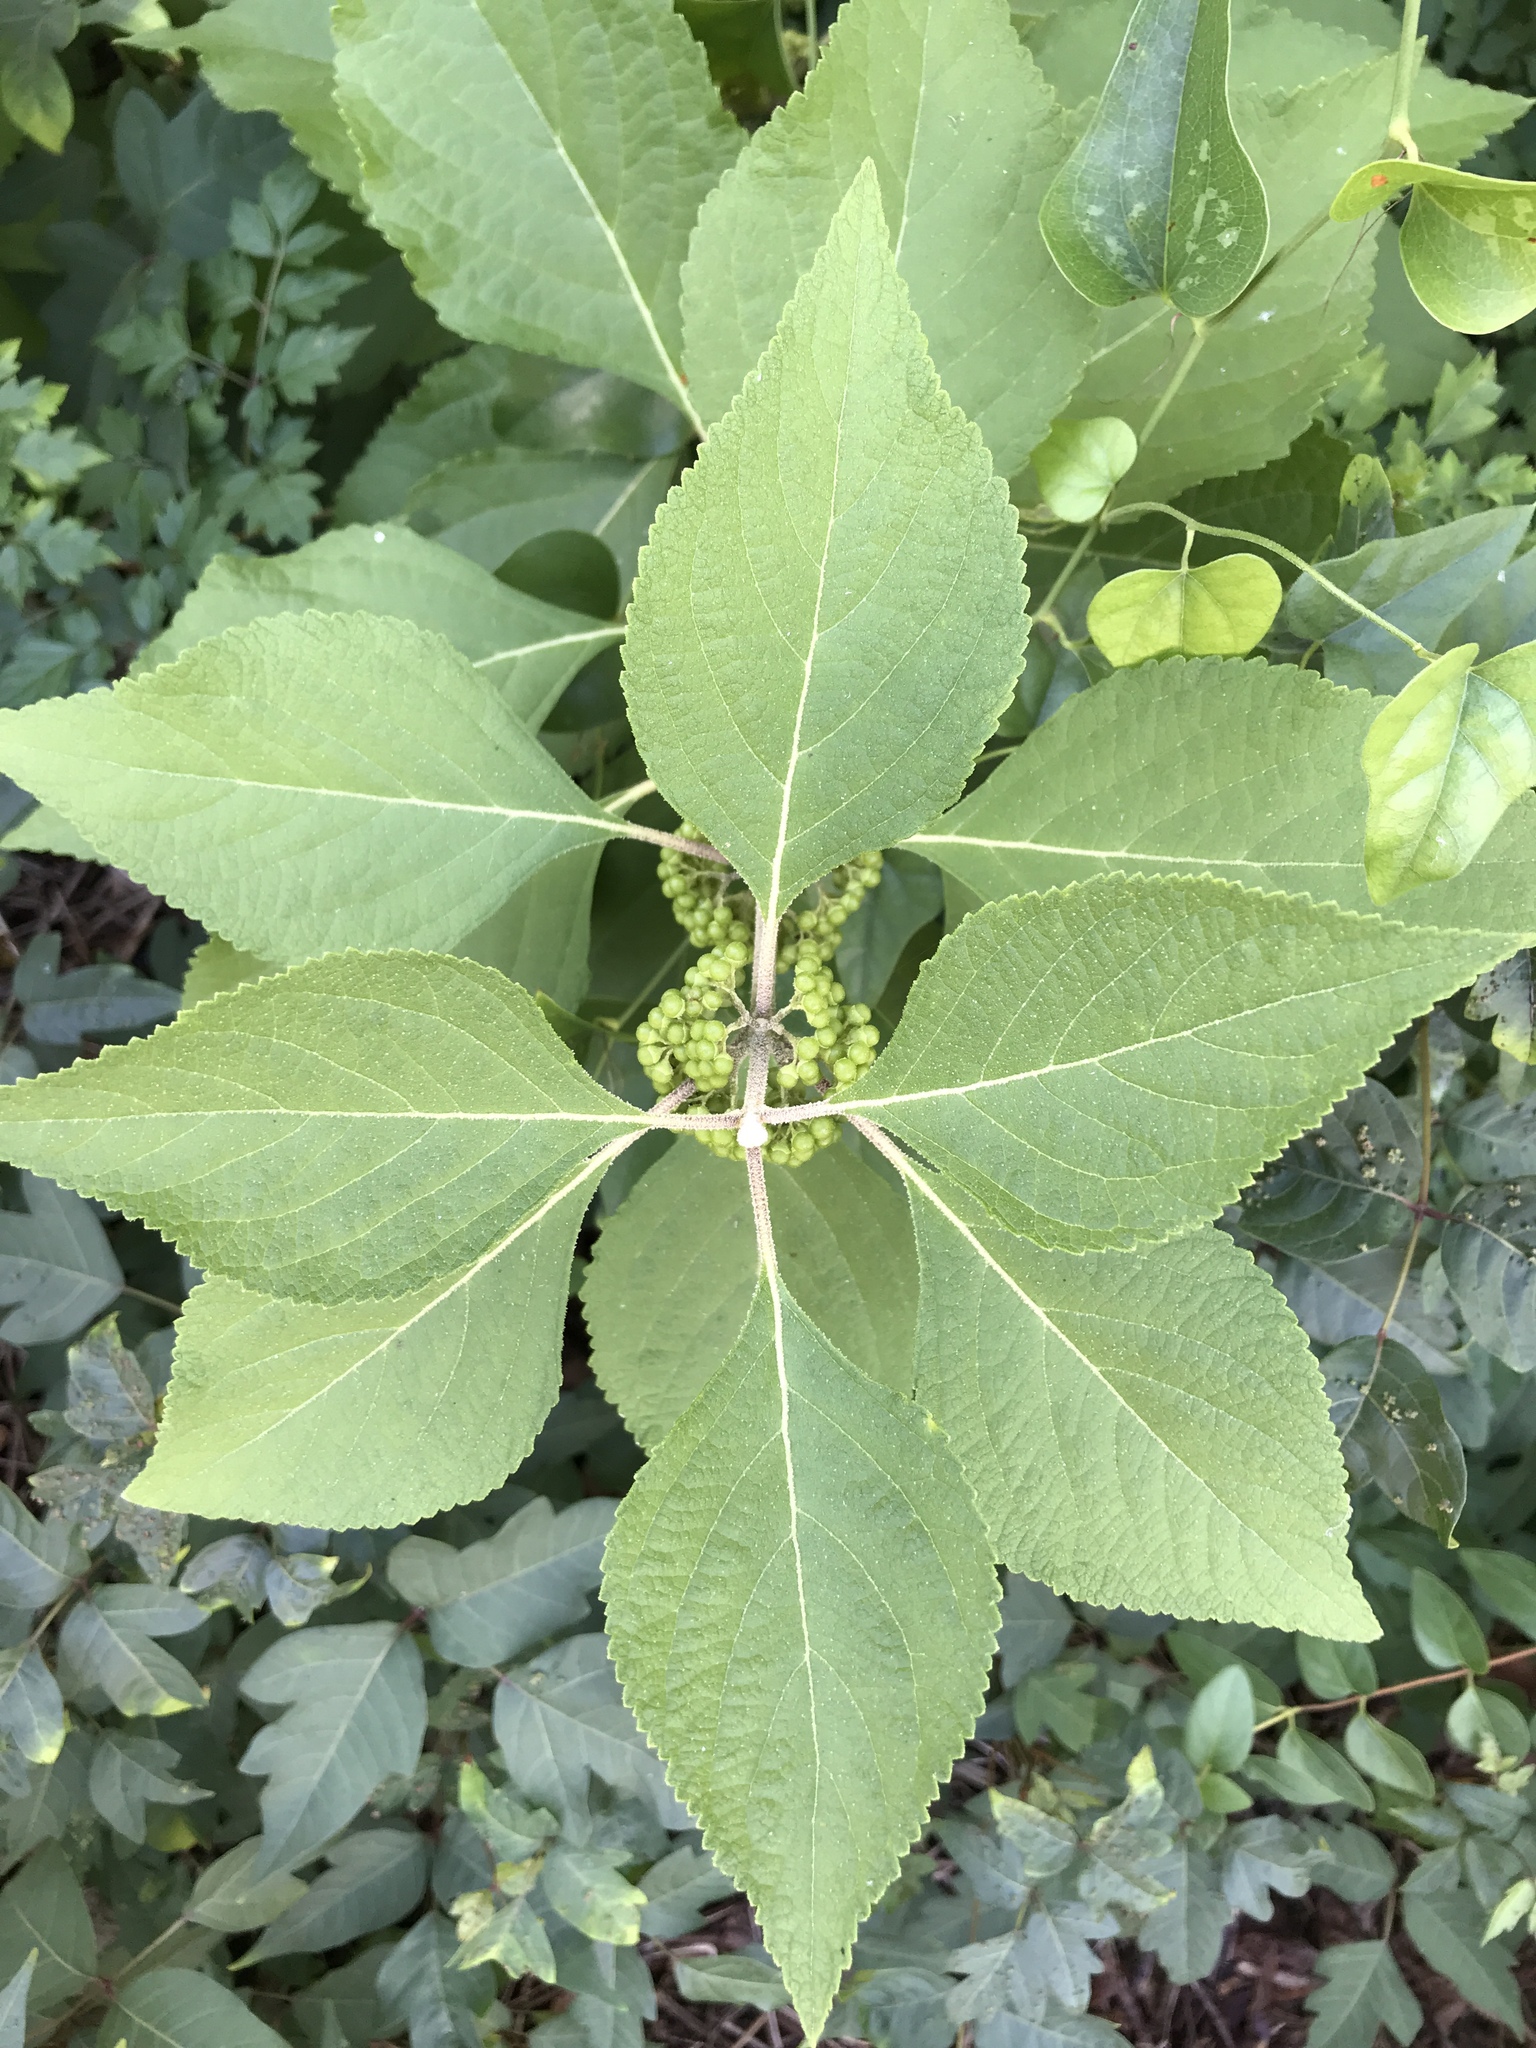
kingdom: Plantae
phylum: Tracheophyta
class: Magnoliopsida
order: Lamiales
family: Lamiaceae
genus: Callicarpa
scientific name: Callicarpa americana
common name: American beautyberry
